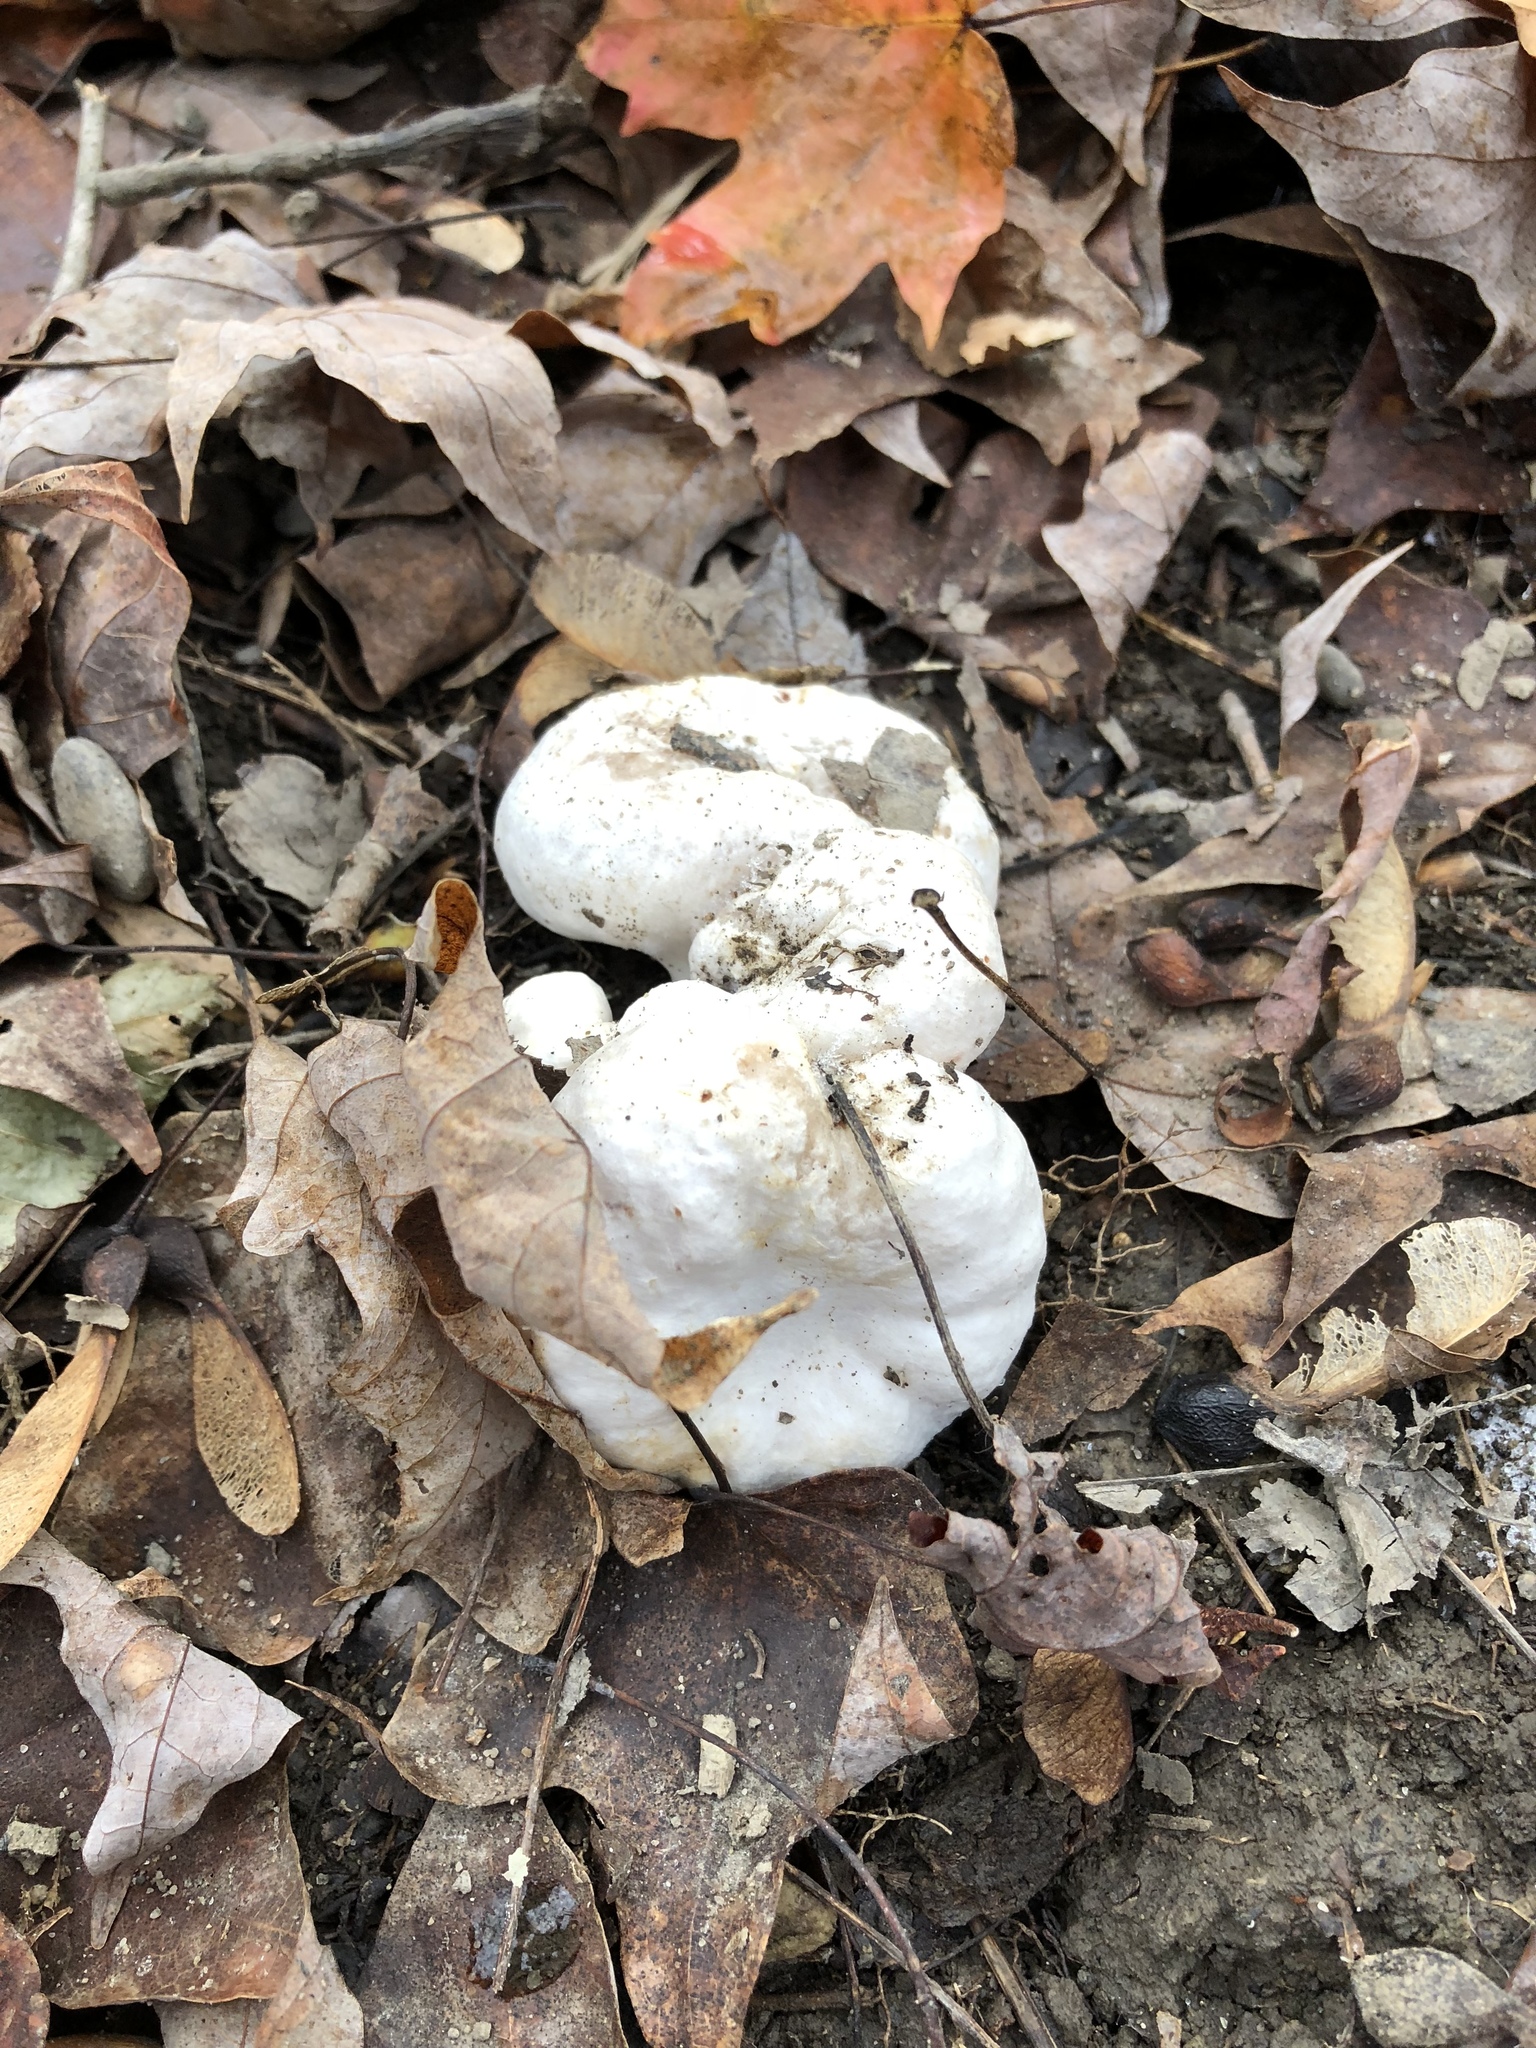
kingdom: Fungi
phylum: Basidiomycota
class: Agaricomycetes
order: Agaricales
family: Entolomataceae
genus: Entoloma
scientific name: Entoloma abortivum
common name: Aborted entoloma
